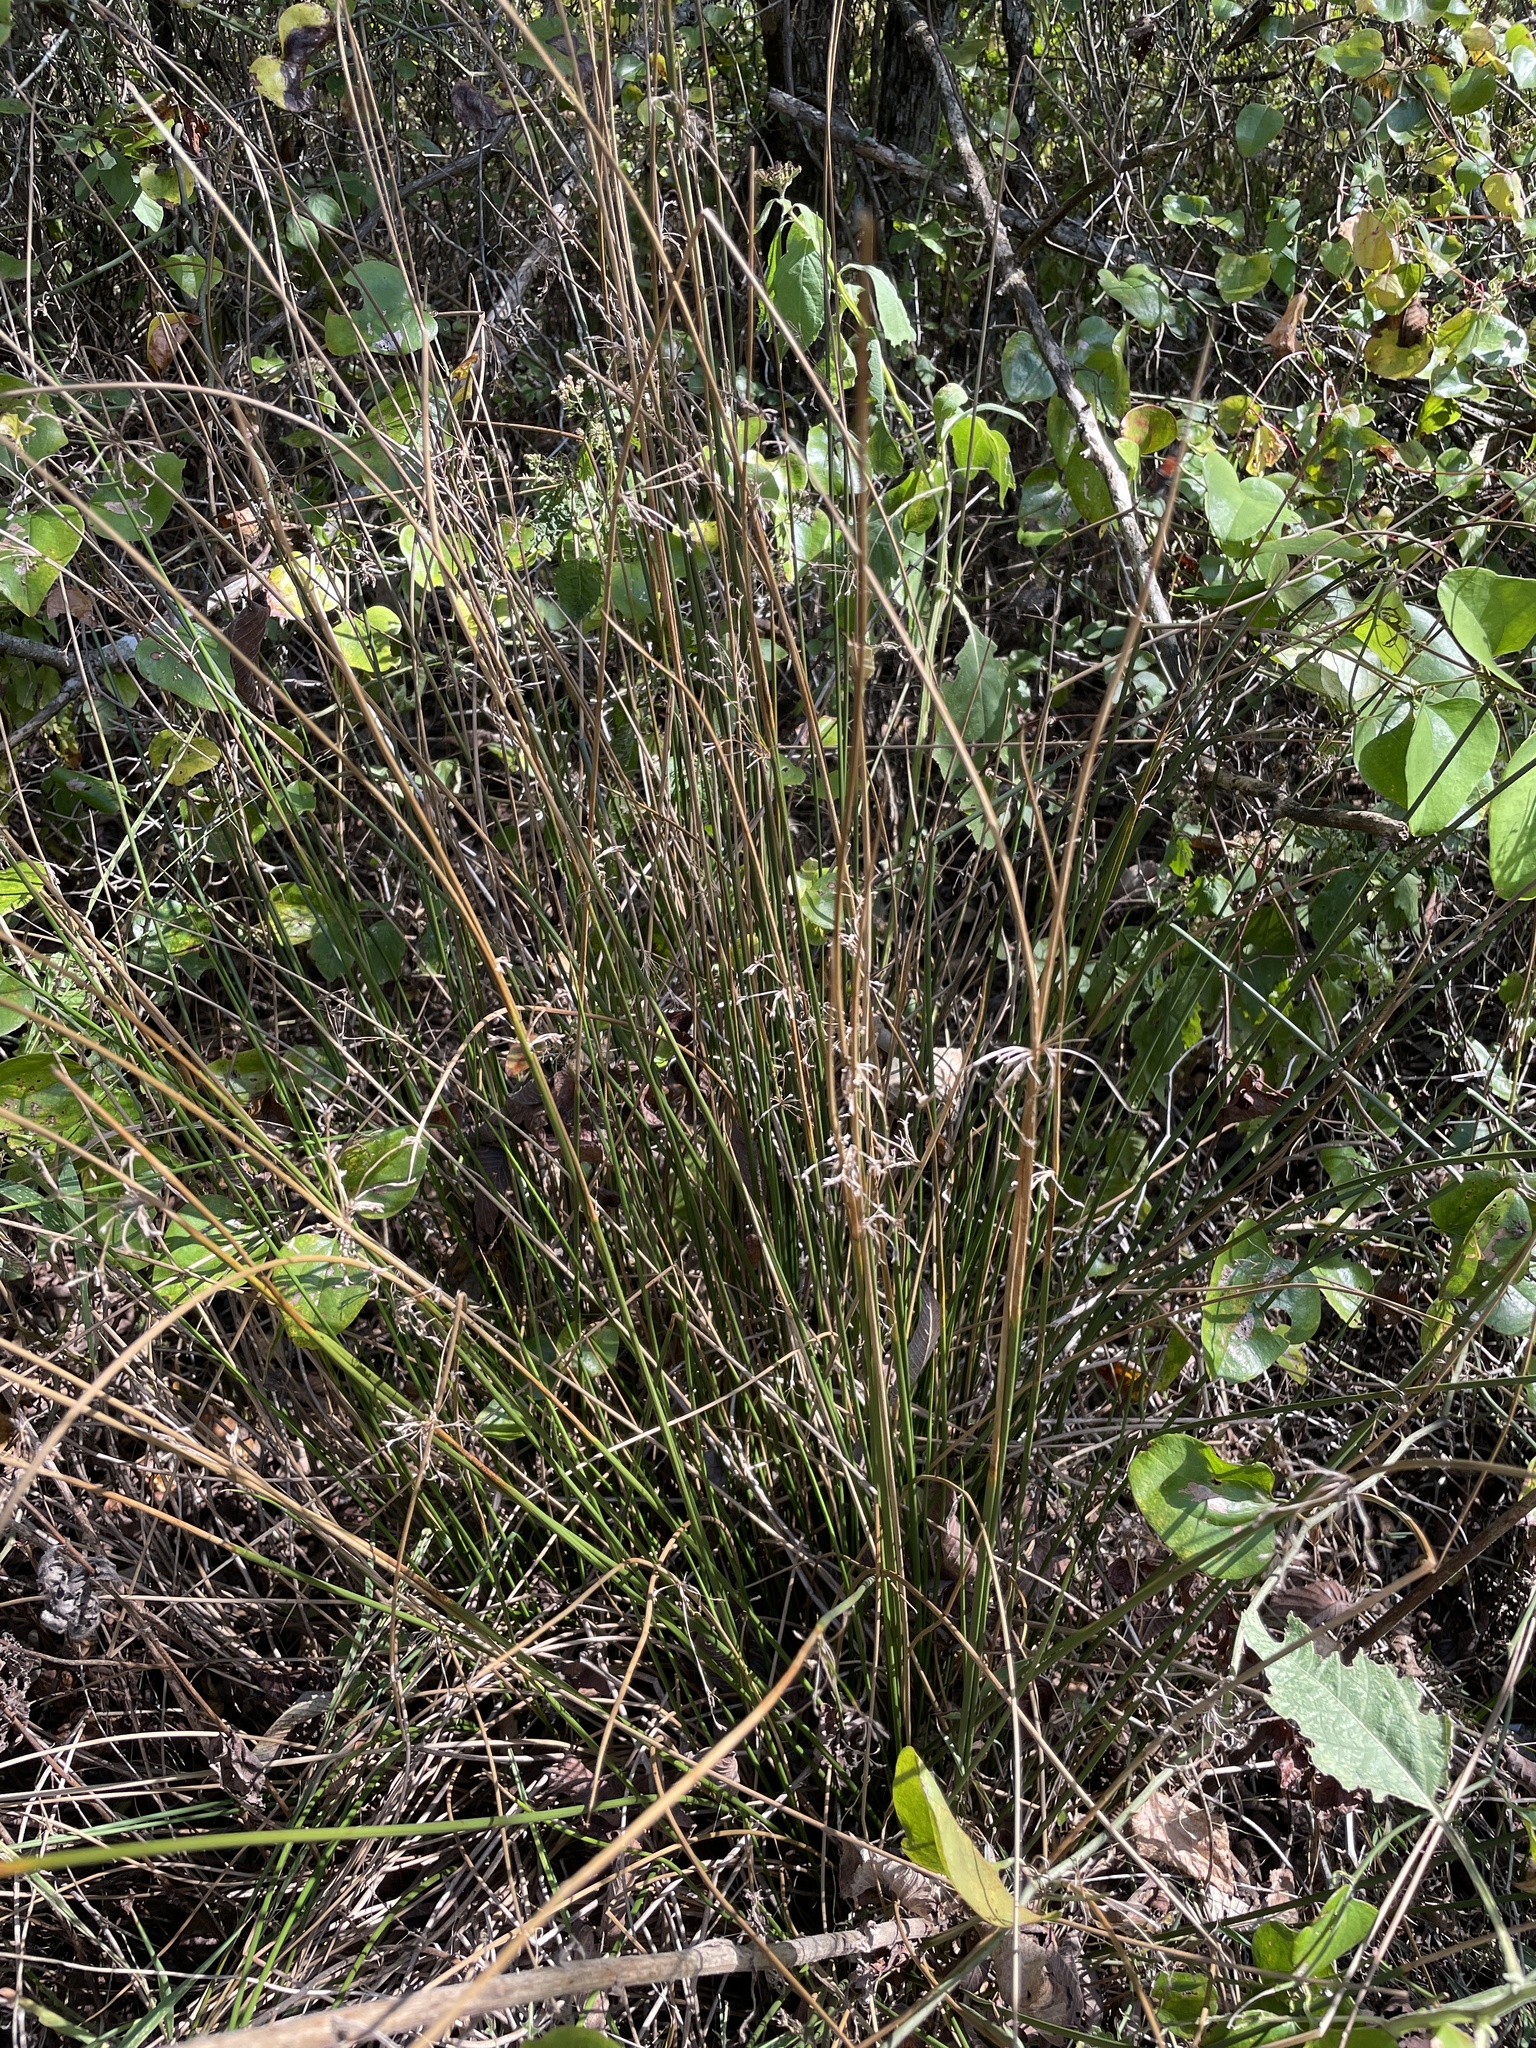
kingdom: Plantae
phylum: Tracheophyta
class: Liliopsida
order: Poales
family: Juncaceae
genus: Juncus
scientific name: Juncus effusus
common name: Soft rush
